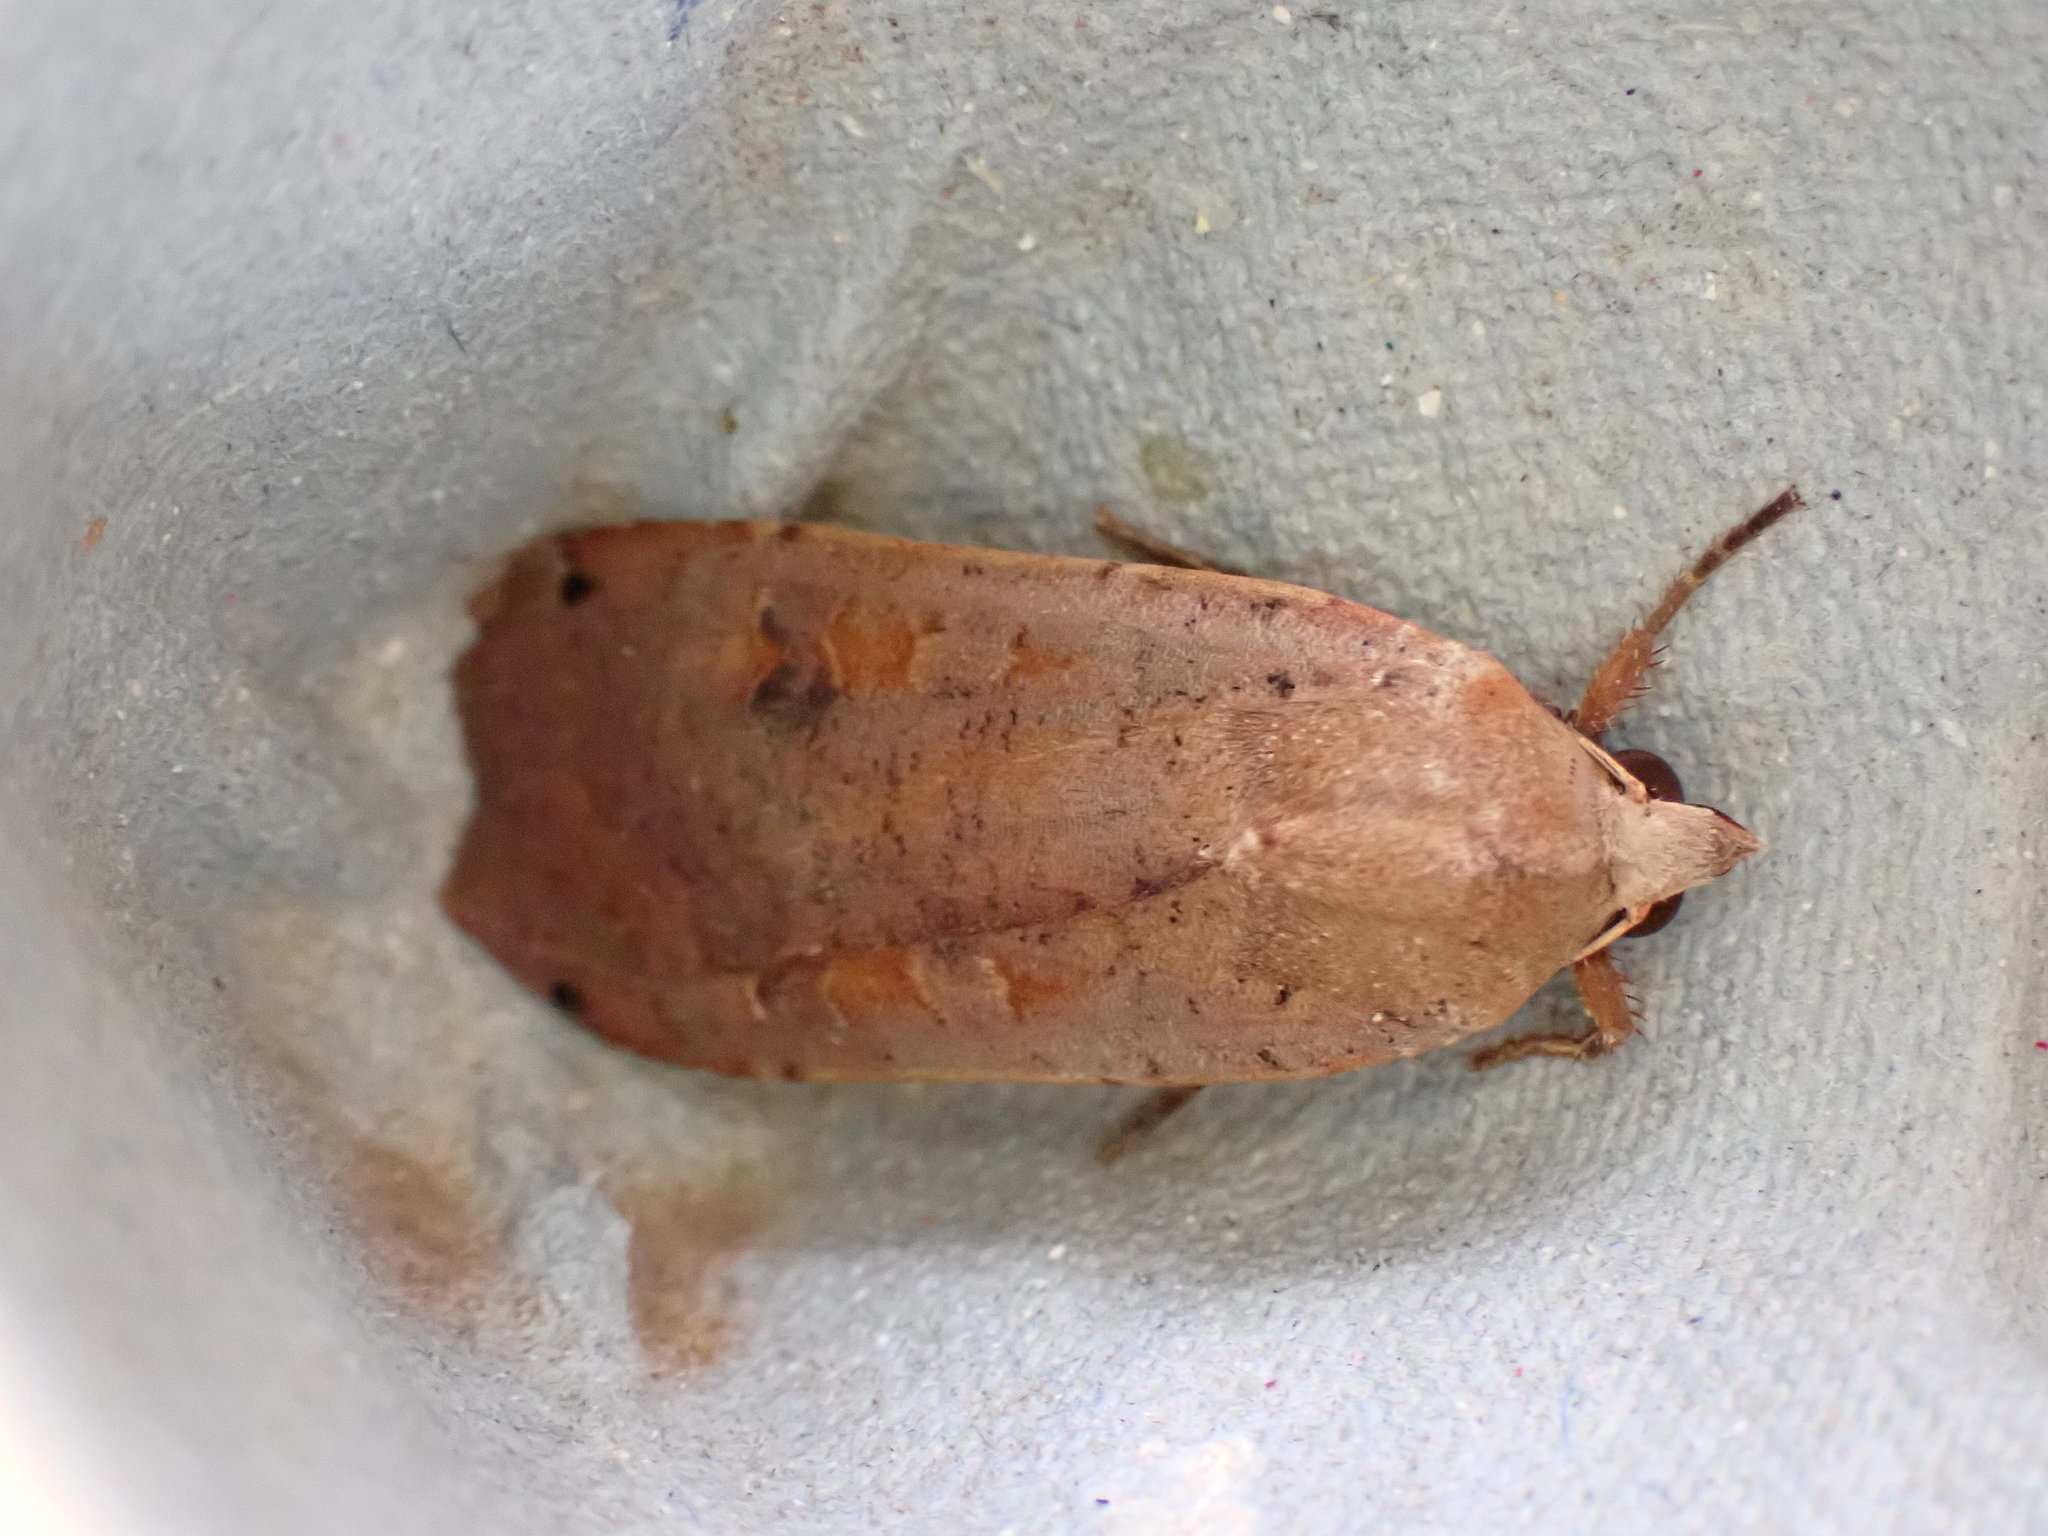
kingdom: Animalia
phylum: Arthropoda
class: Insecta
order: Lepidoptera
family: Noctuidae
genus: Noctua
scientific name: Noctua pronuba
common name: Large yellow underwing
